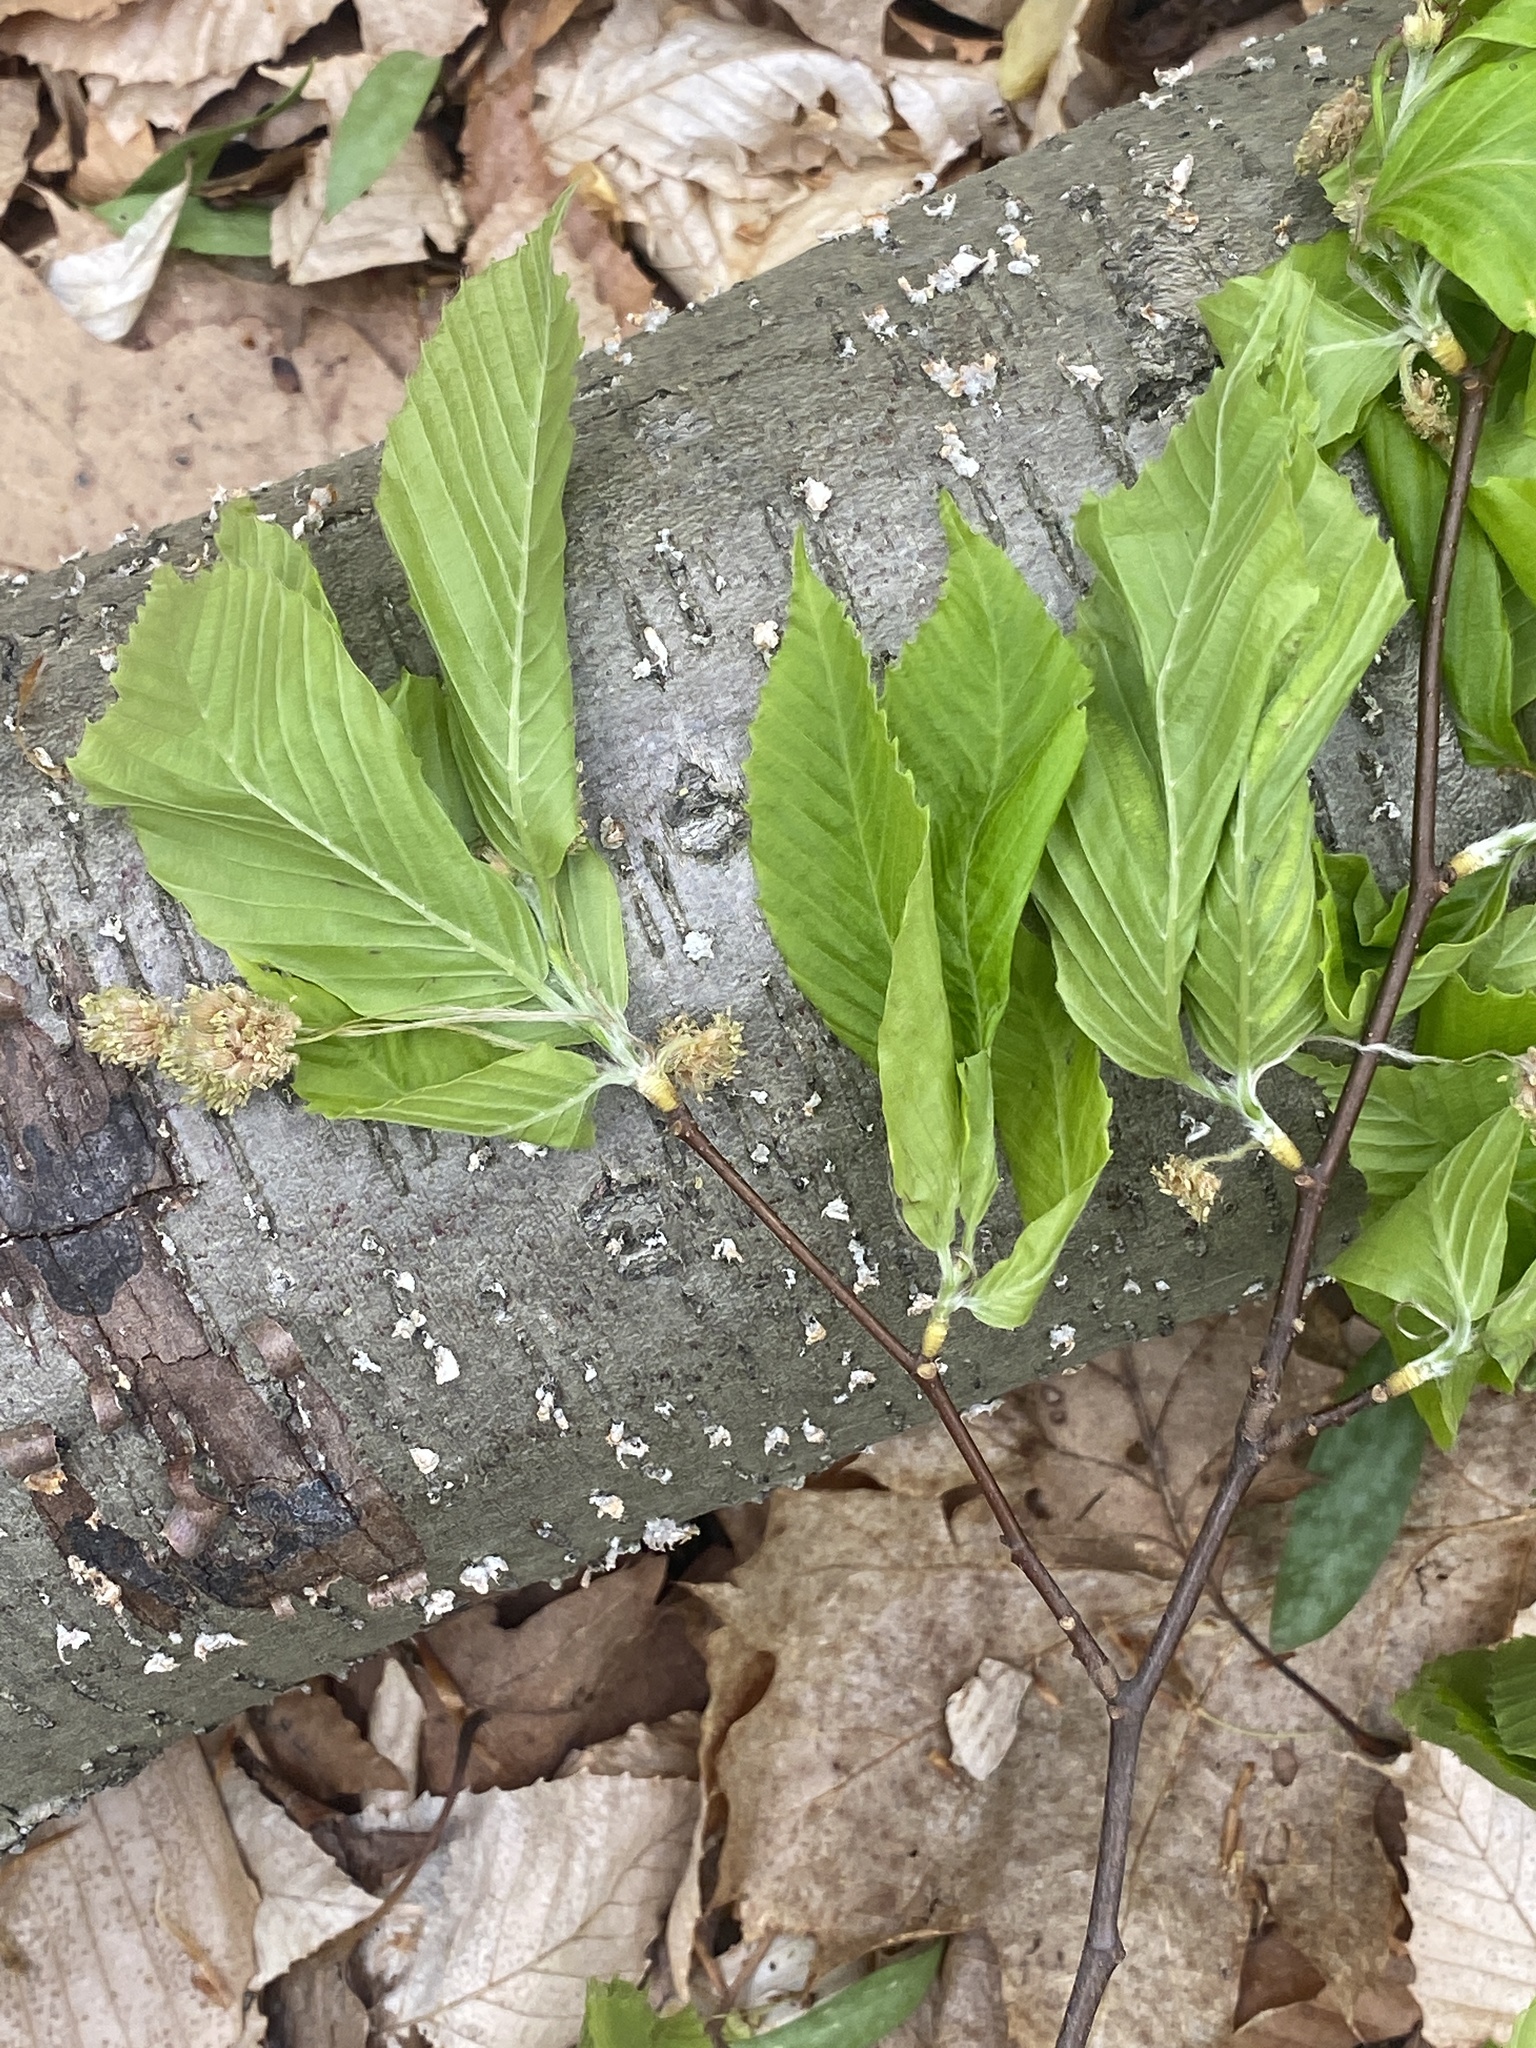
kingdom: Plantae
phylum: Tracheophyta
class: Magnoliopsida
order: Fagales
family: Fagaceae
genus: Fagus
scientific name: Fagus grandifolia
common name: American beech
